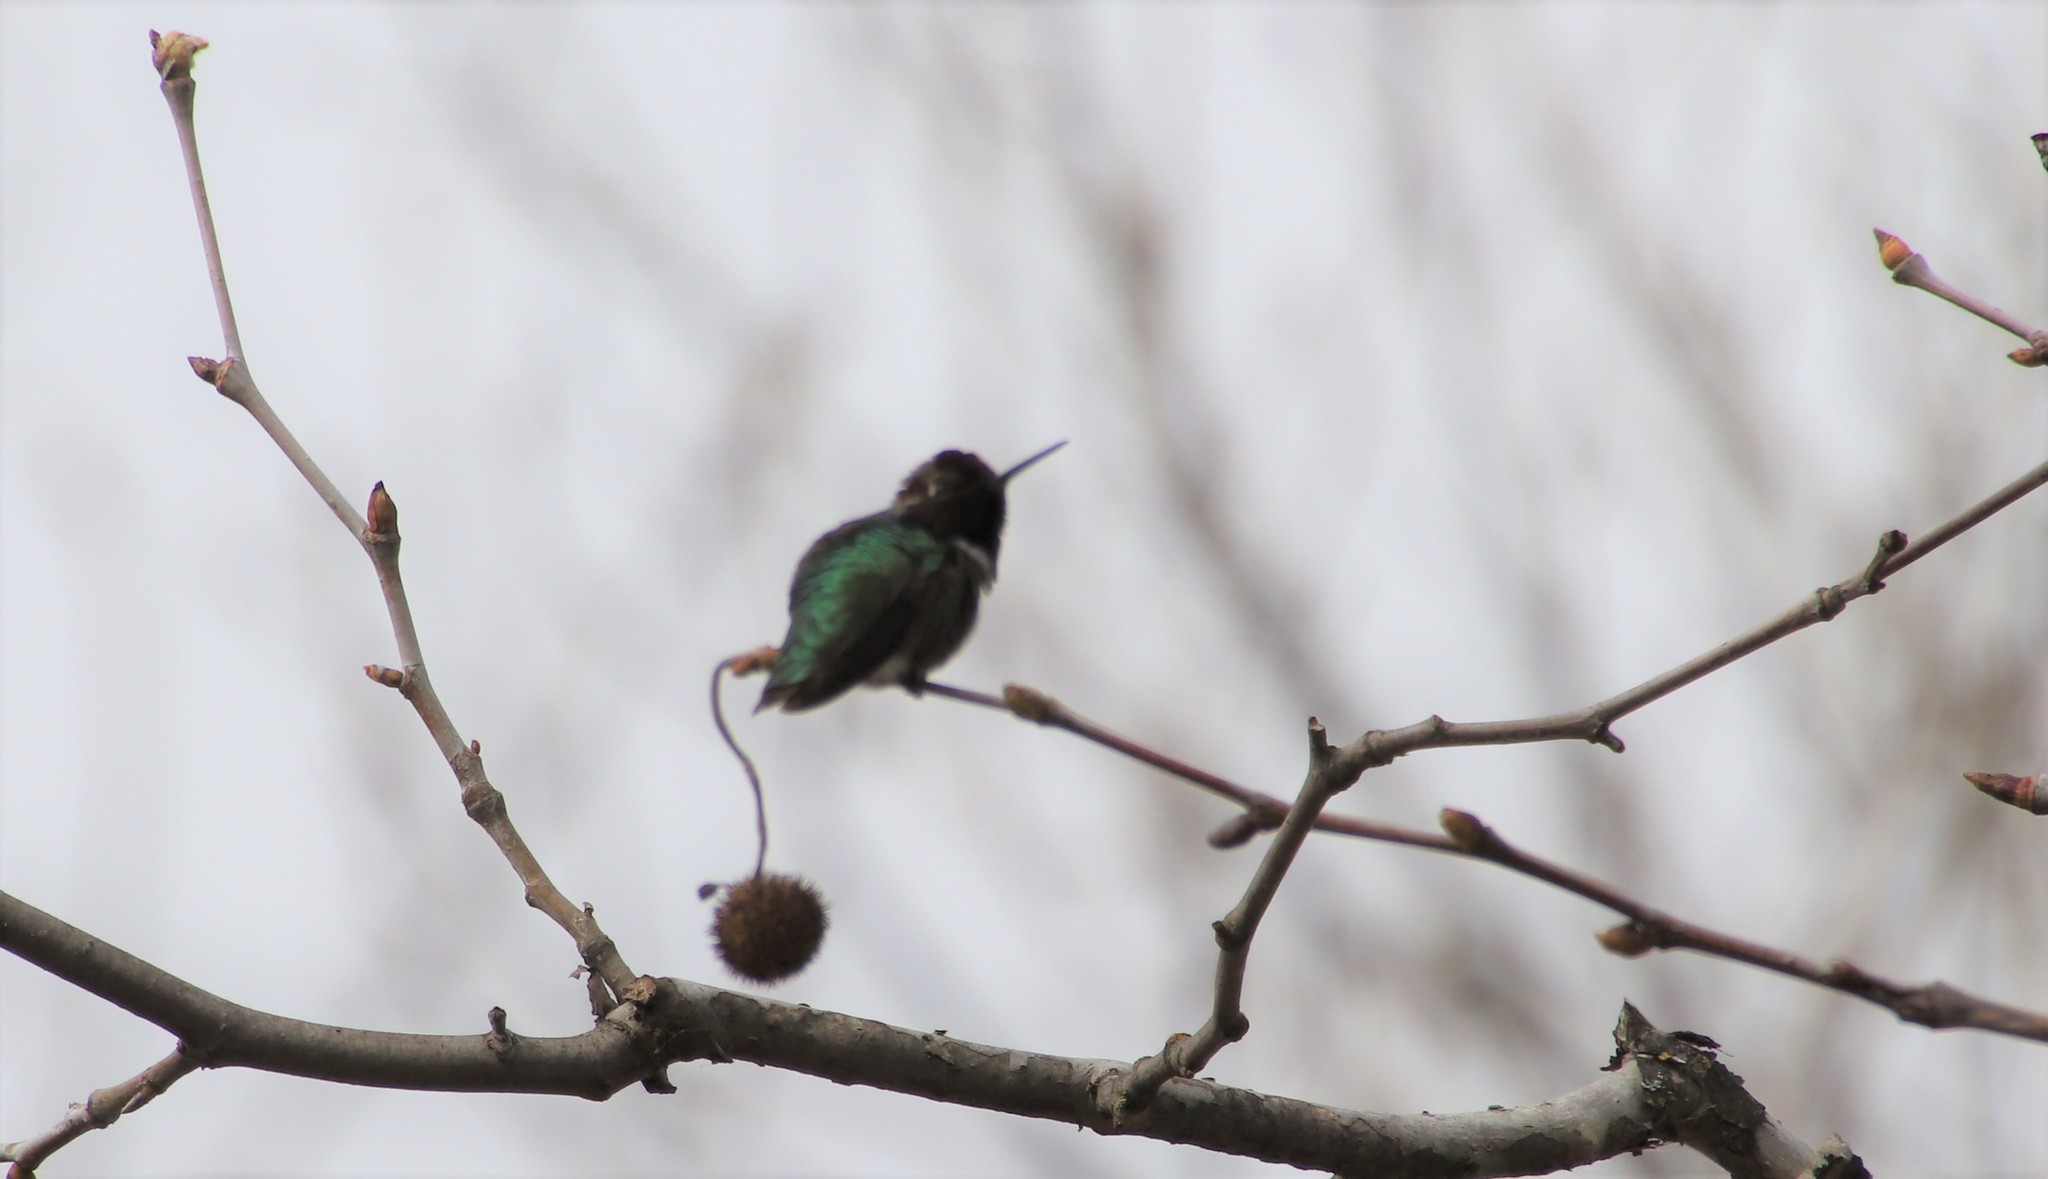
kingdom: Animalia
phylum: Chordata
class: Aves
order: Apodiformes
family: Trochilidae
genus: Calypte
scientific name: Calypte costae
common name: Costa's hummingbird
